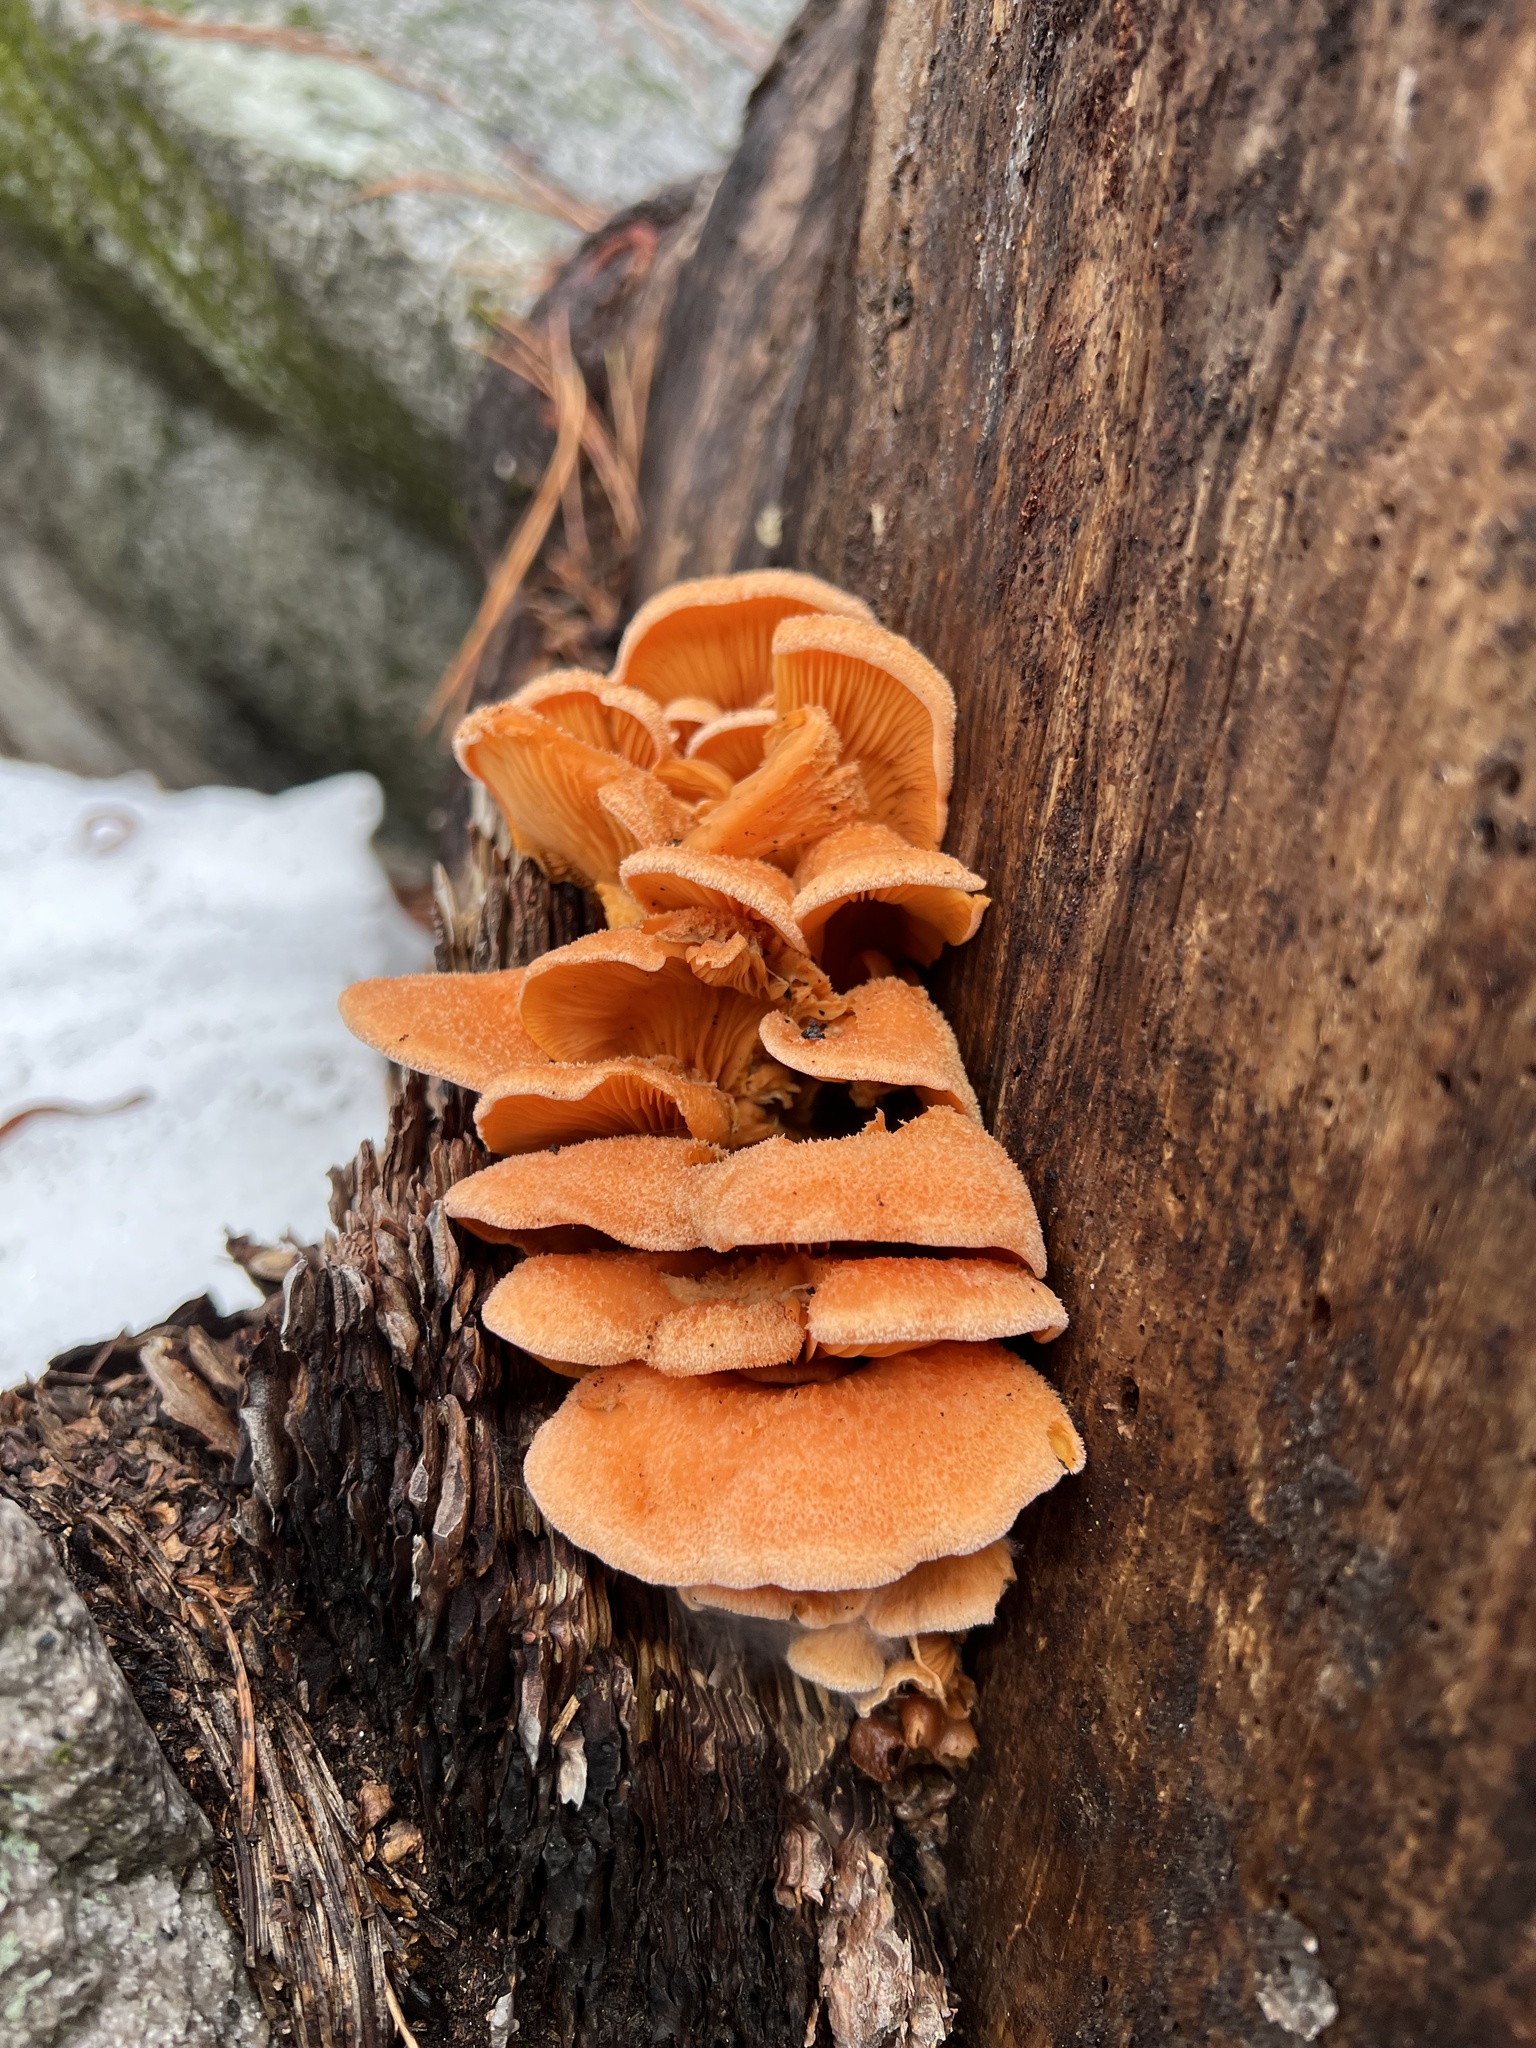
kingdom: Fungi
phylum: Basidiomycota
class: Agaricomycetes
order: Agaricales
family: Phyllotopsidaceae
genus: Phyllotopsis
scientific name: Phyllotopsis nidulans
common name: Orange mock oyster
